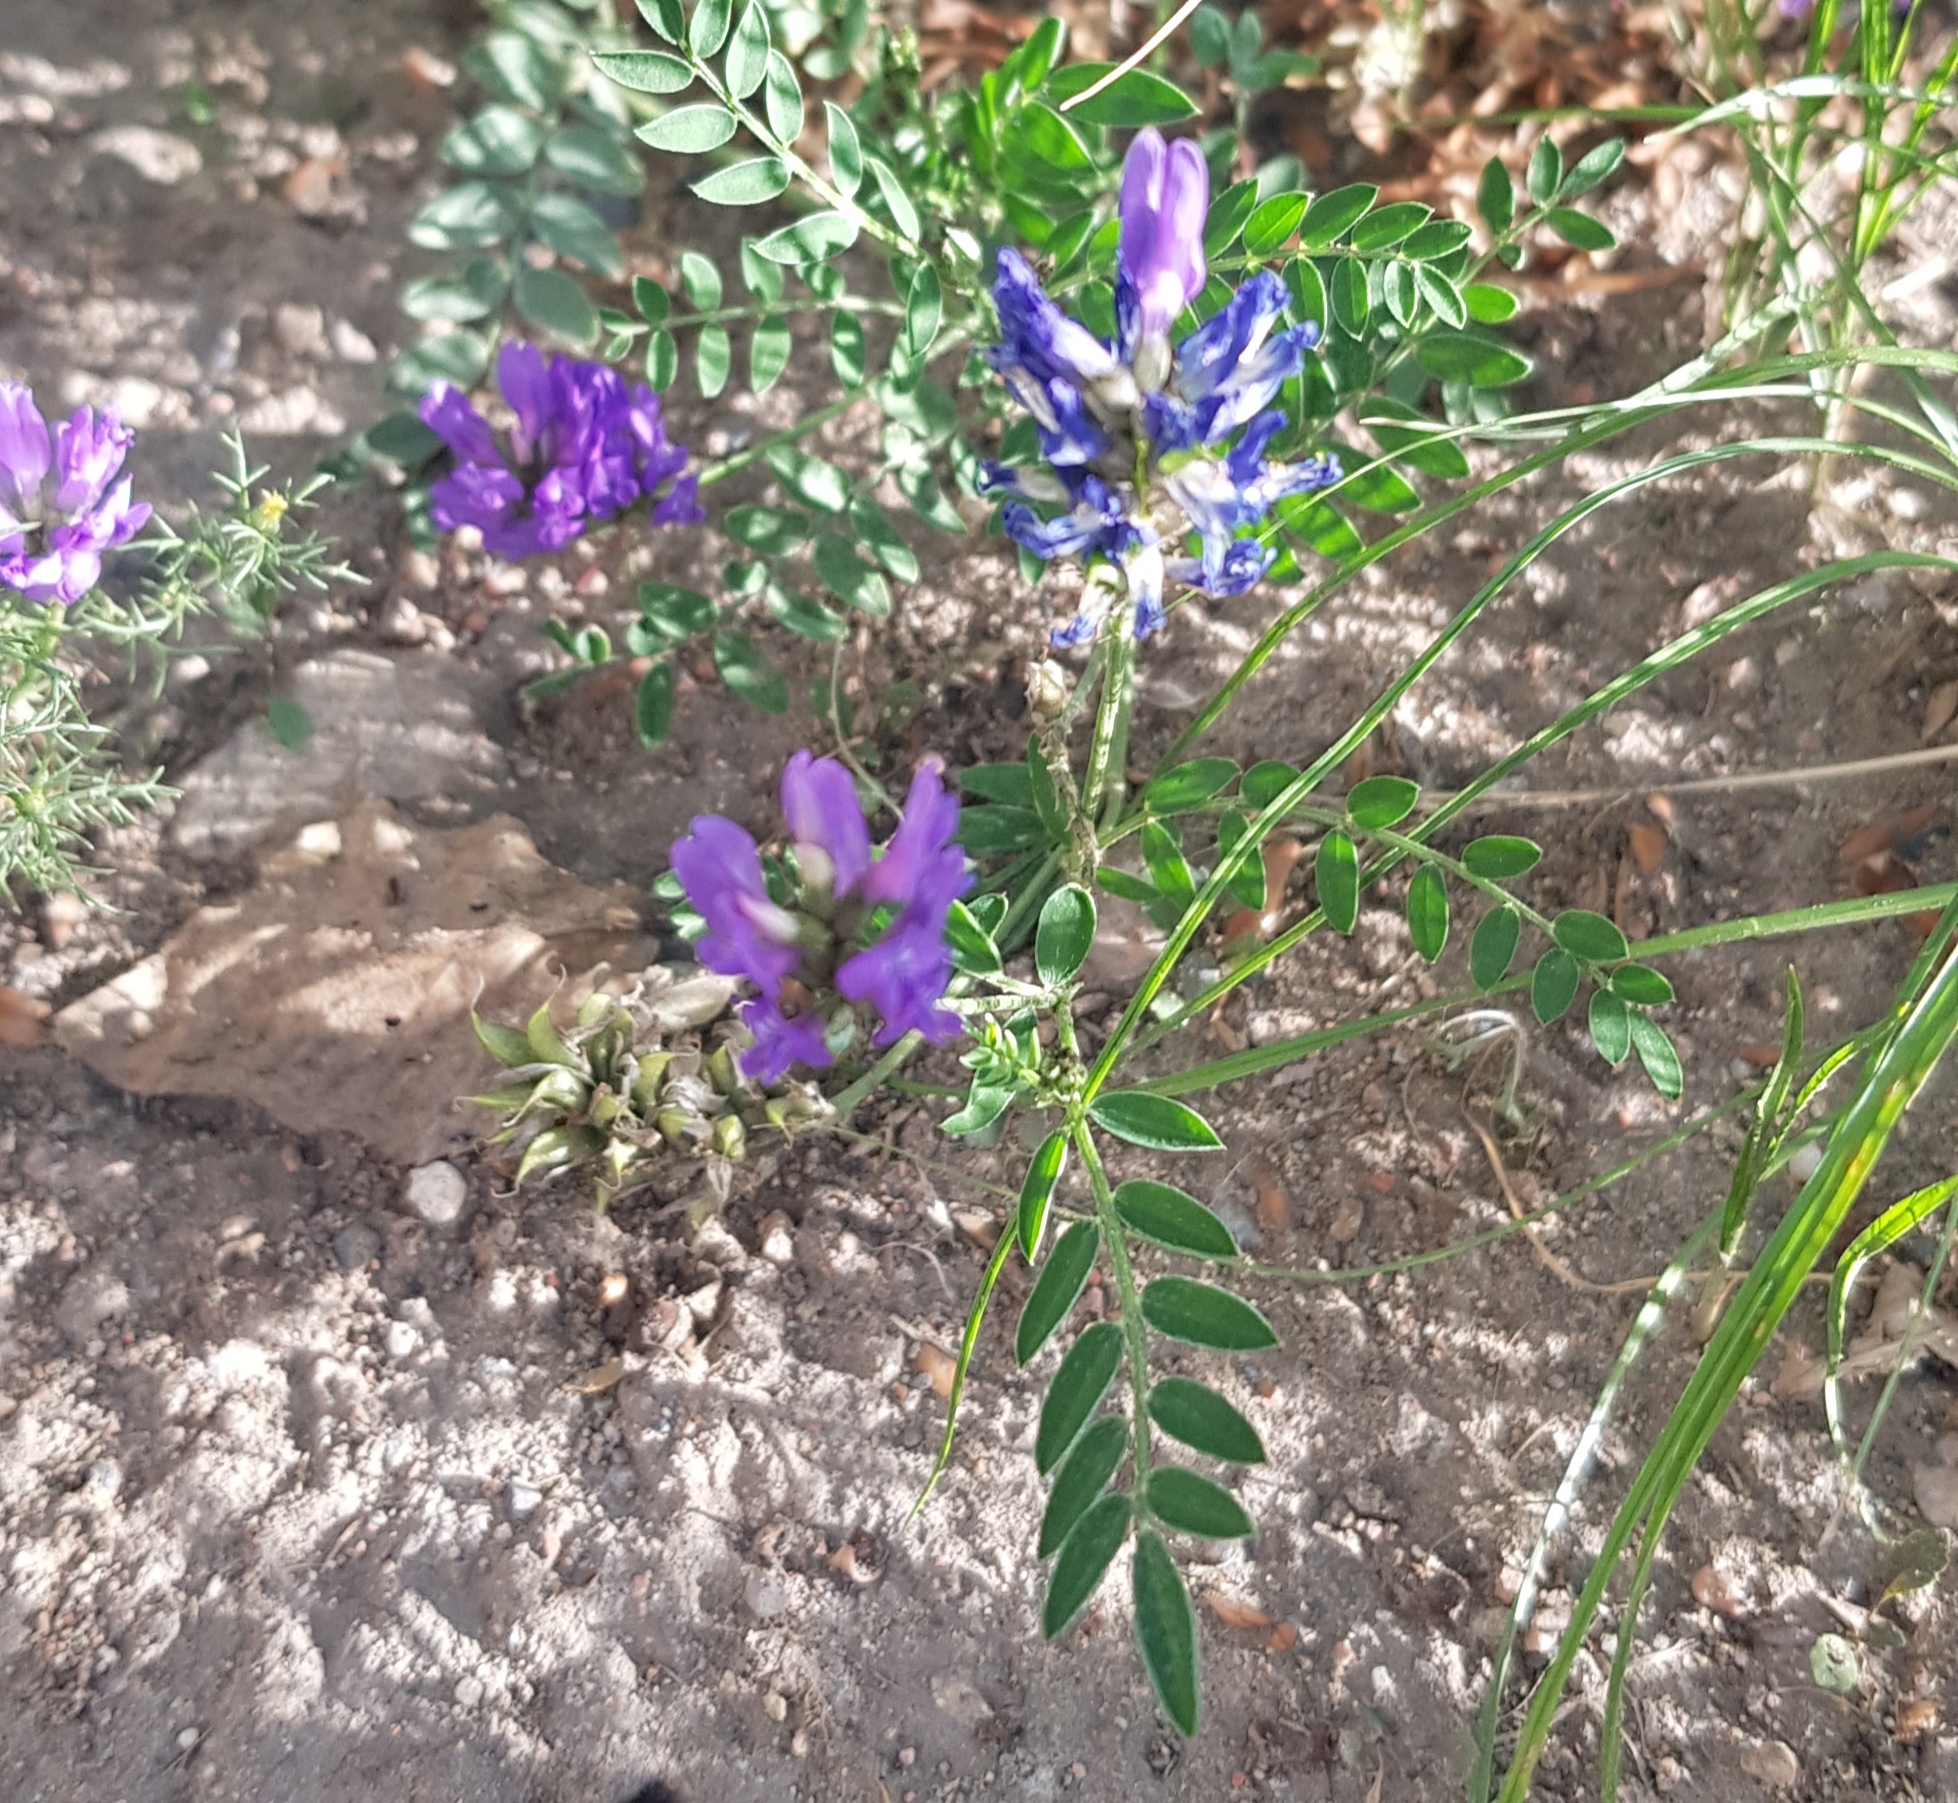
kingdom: Plantae
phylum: Tracheophyta
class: Magnoliopsida
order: Fabales
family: Fabaceae
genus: Astragalus
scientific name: Astragalus laxmannii
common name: Laxmann's milk-vetch
